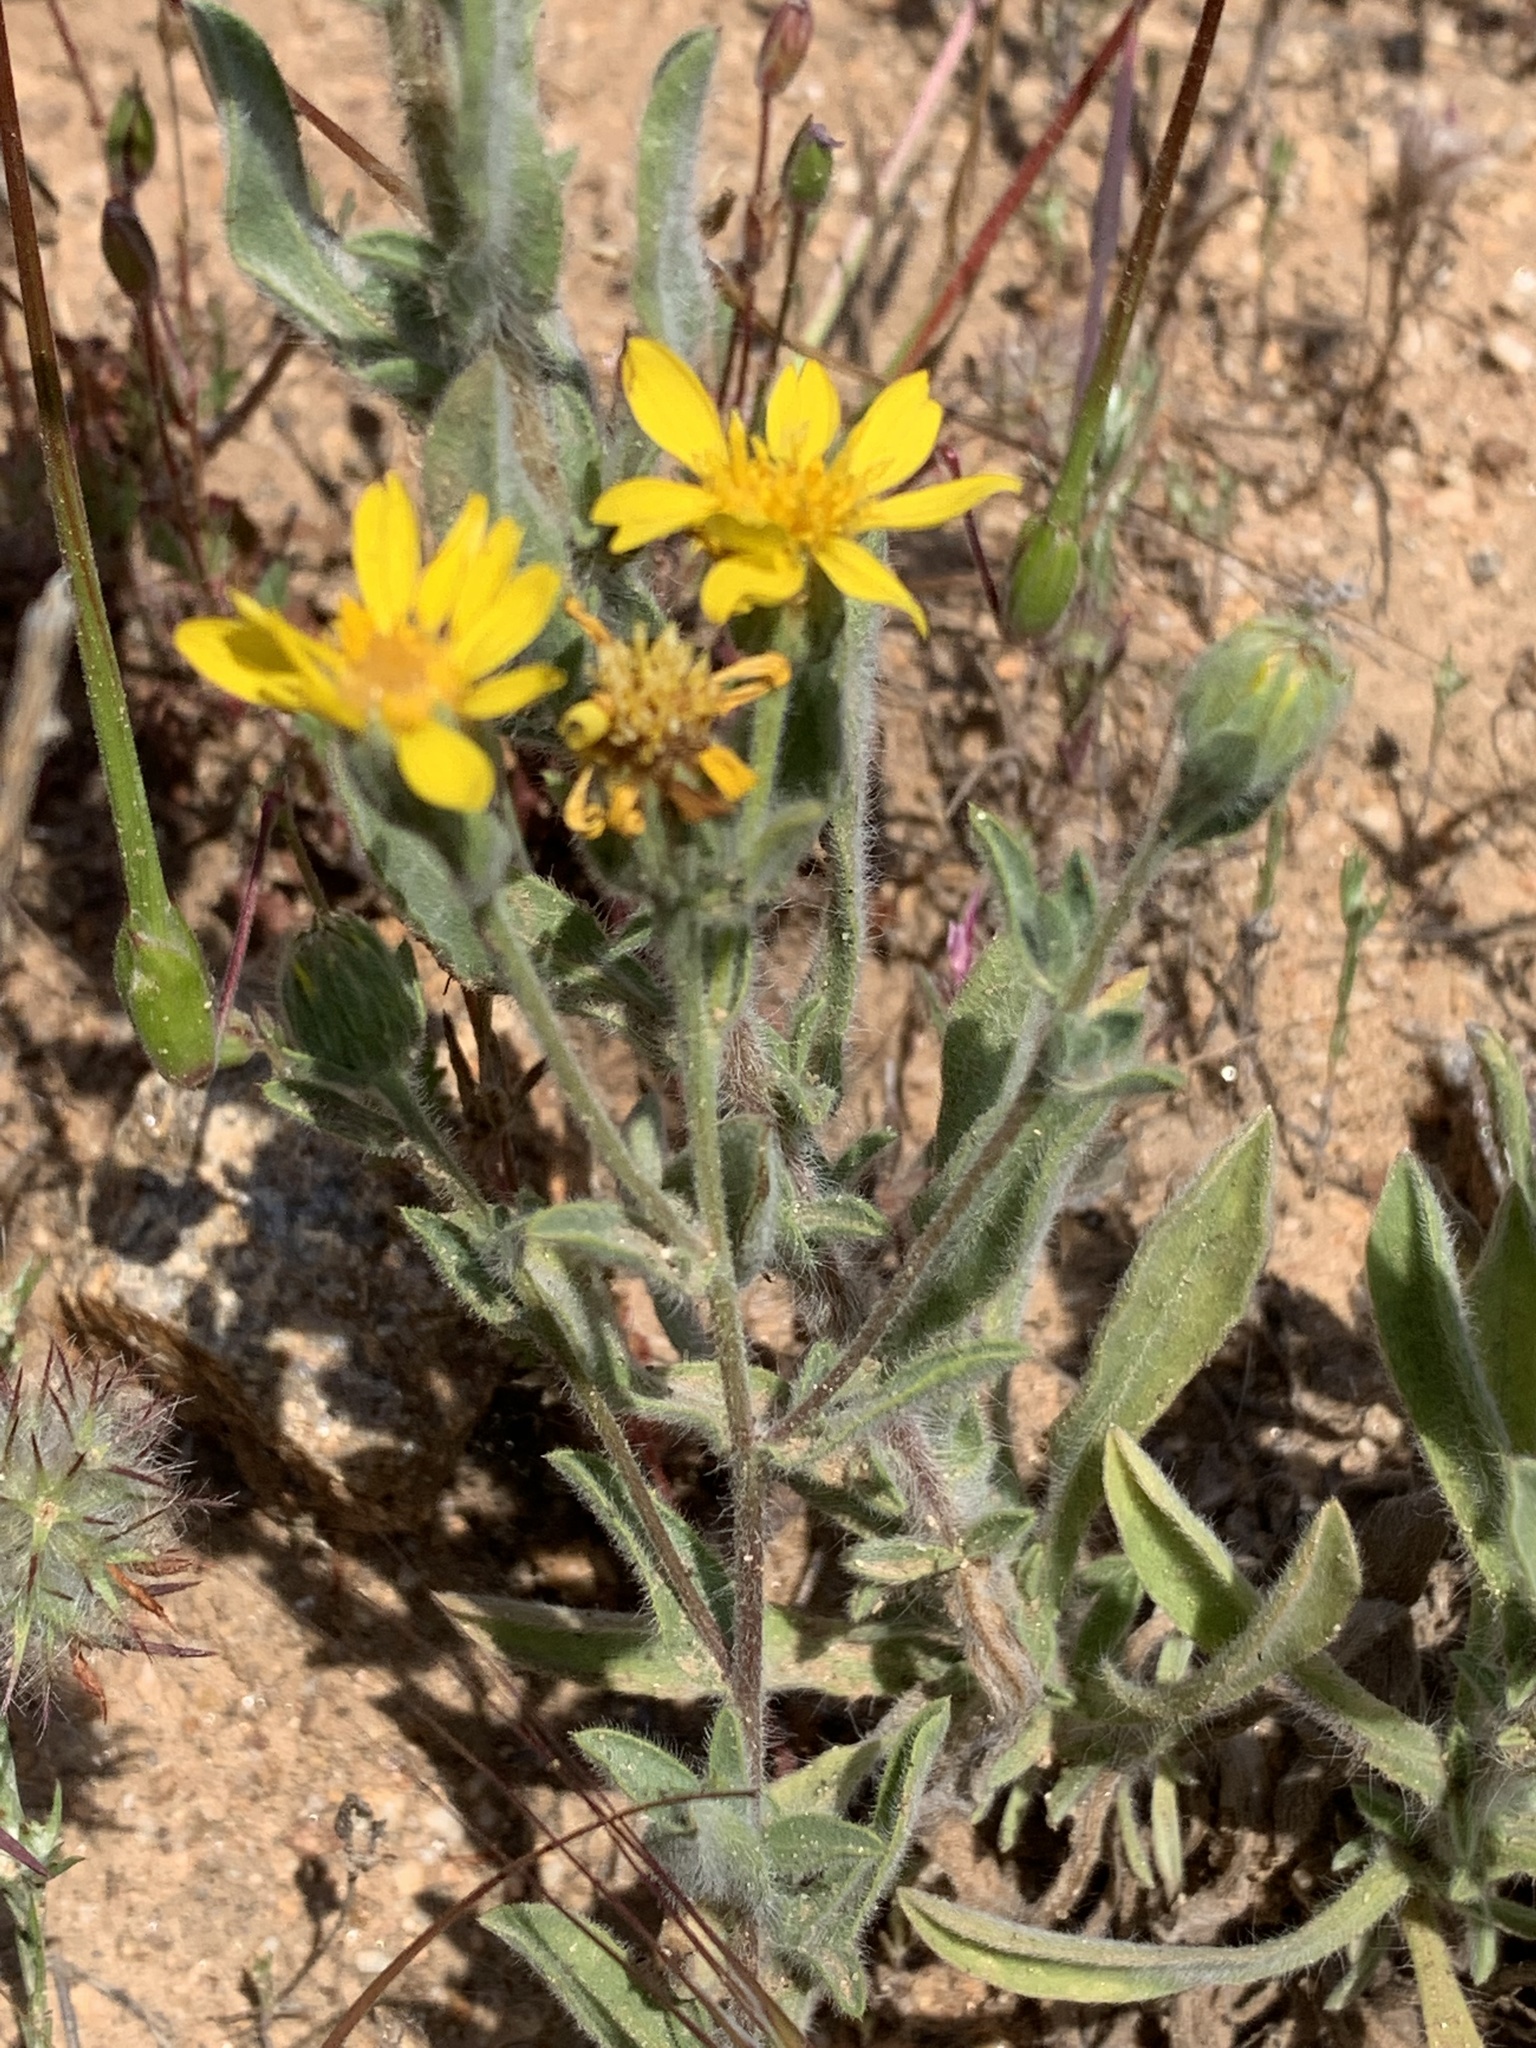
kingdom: Plantae
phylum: Tracheophyta
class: Magnoliopsida
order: Asterales
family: Asteraceae
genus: Heterotheca
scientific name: Heterotheca sessiliflora
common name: Sessile-flower golden-aster
